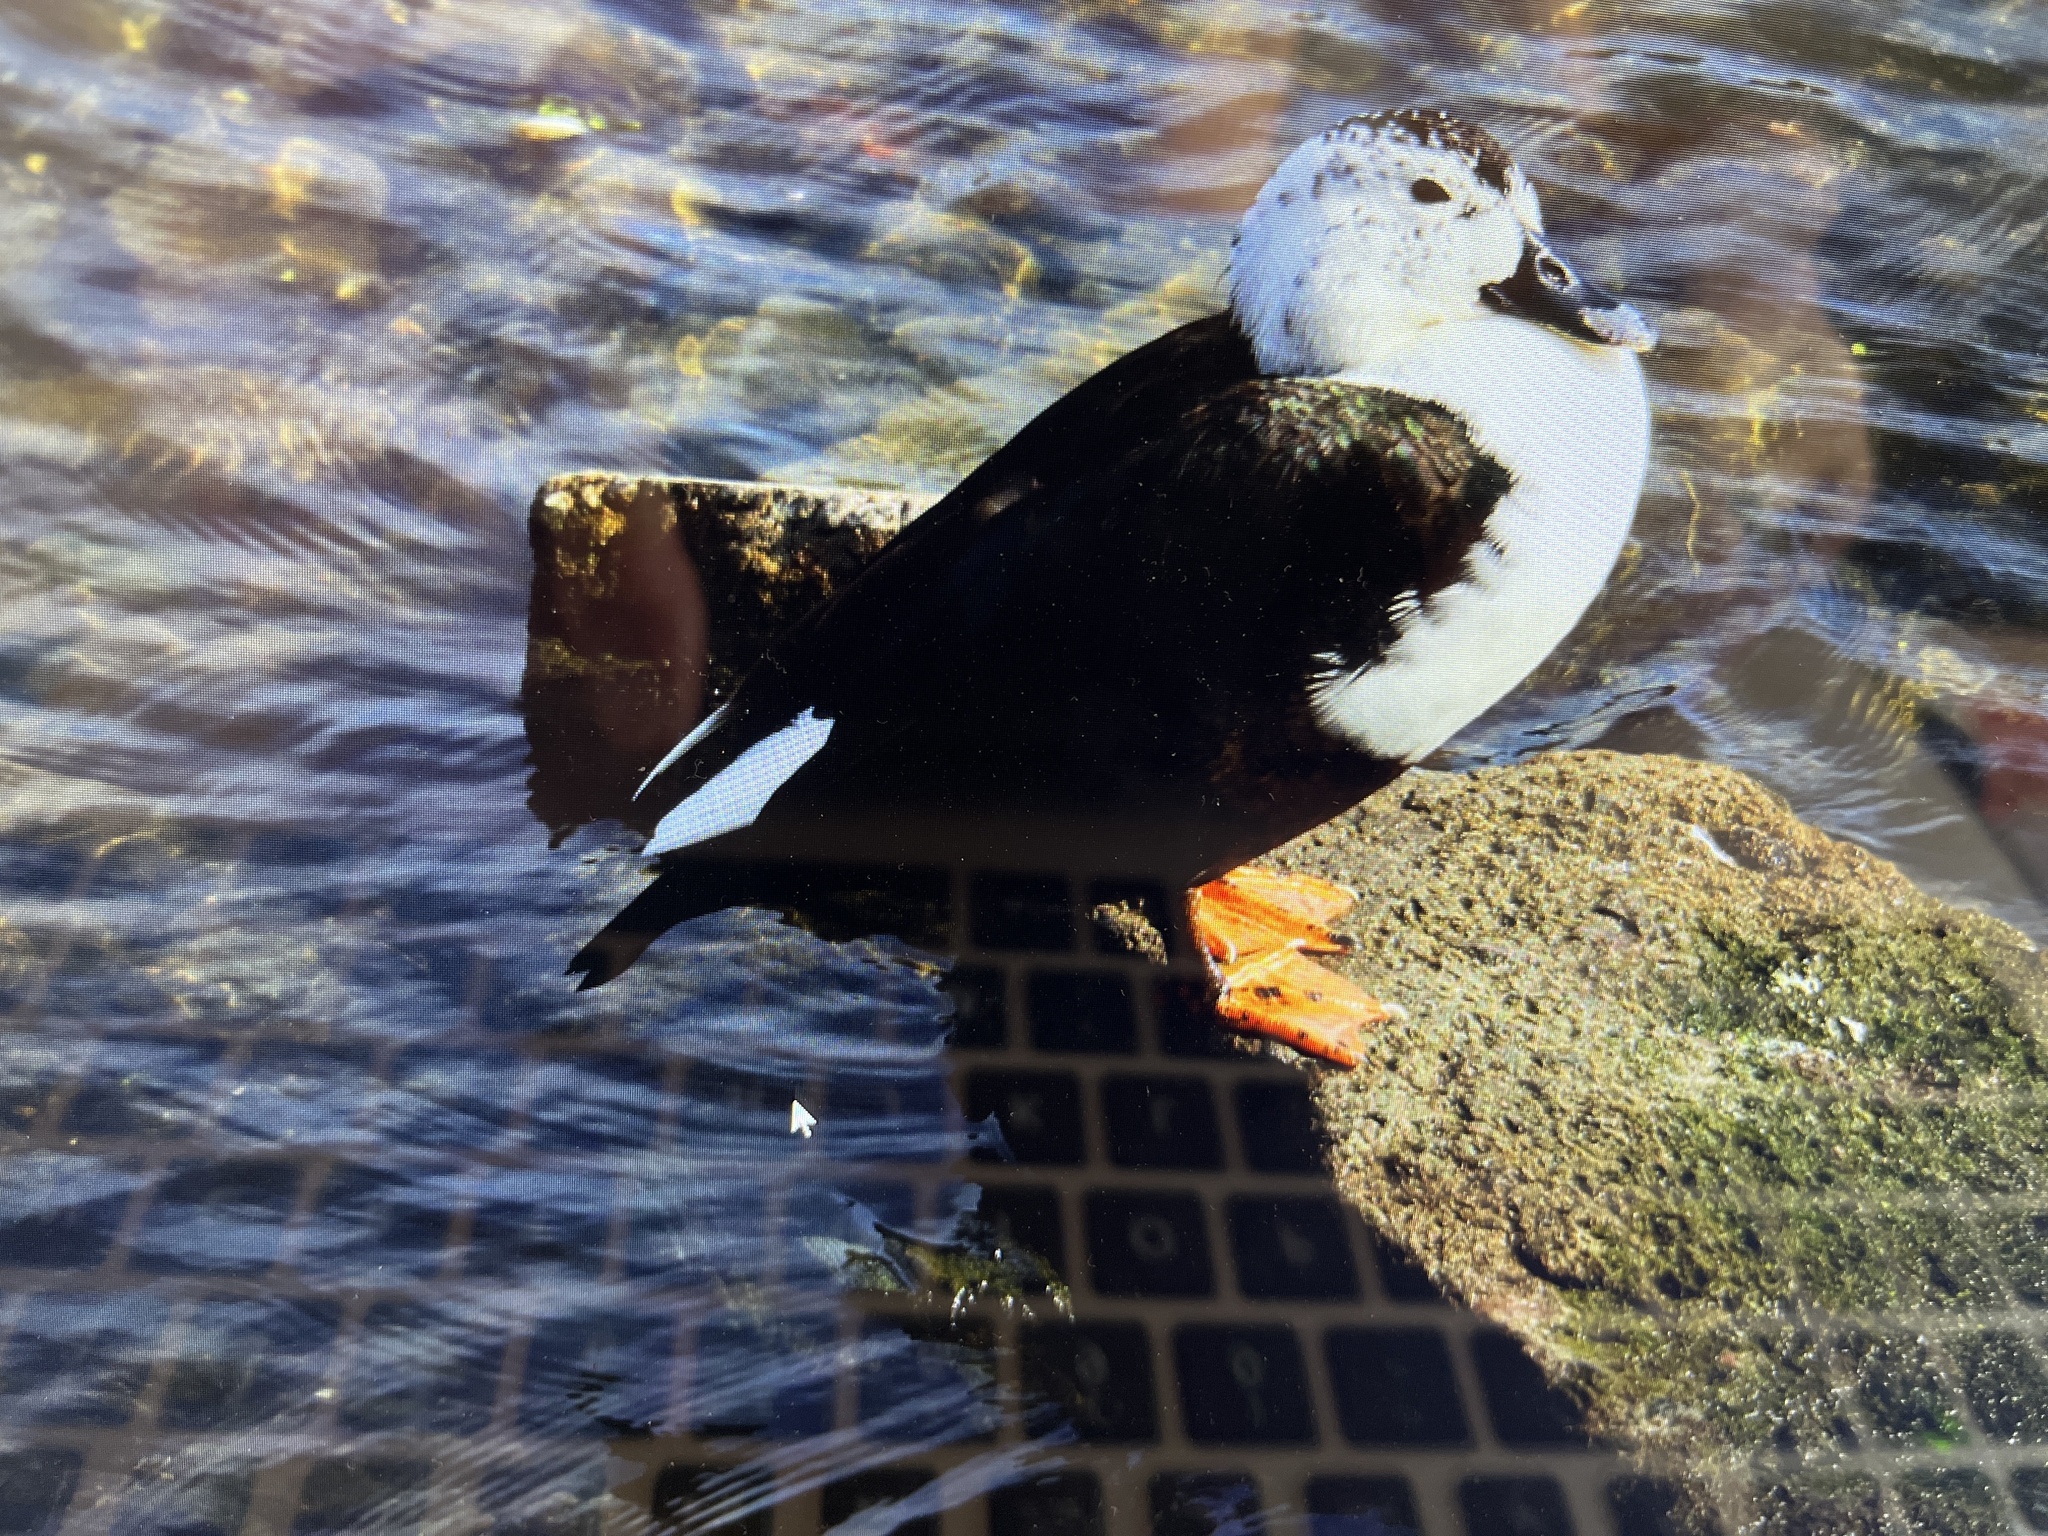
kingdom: Animalia
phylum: Chordata
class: Aves
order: Anseriformes
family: Anatidae
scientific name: Anatidae
